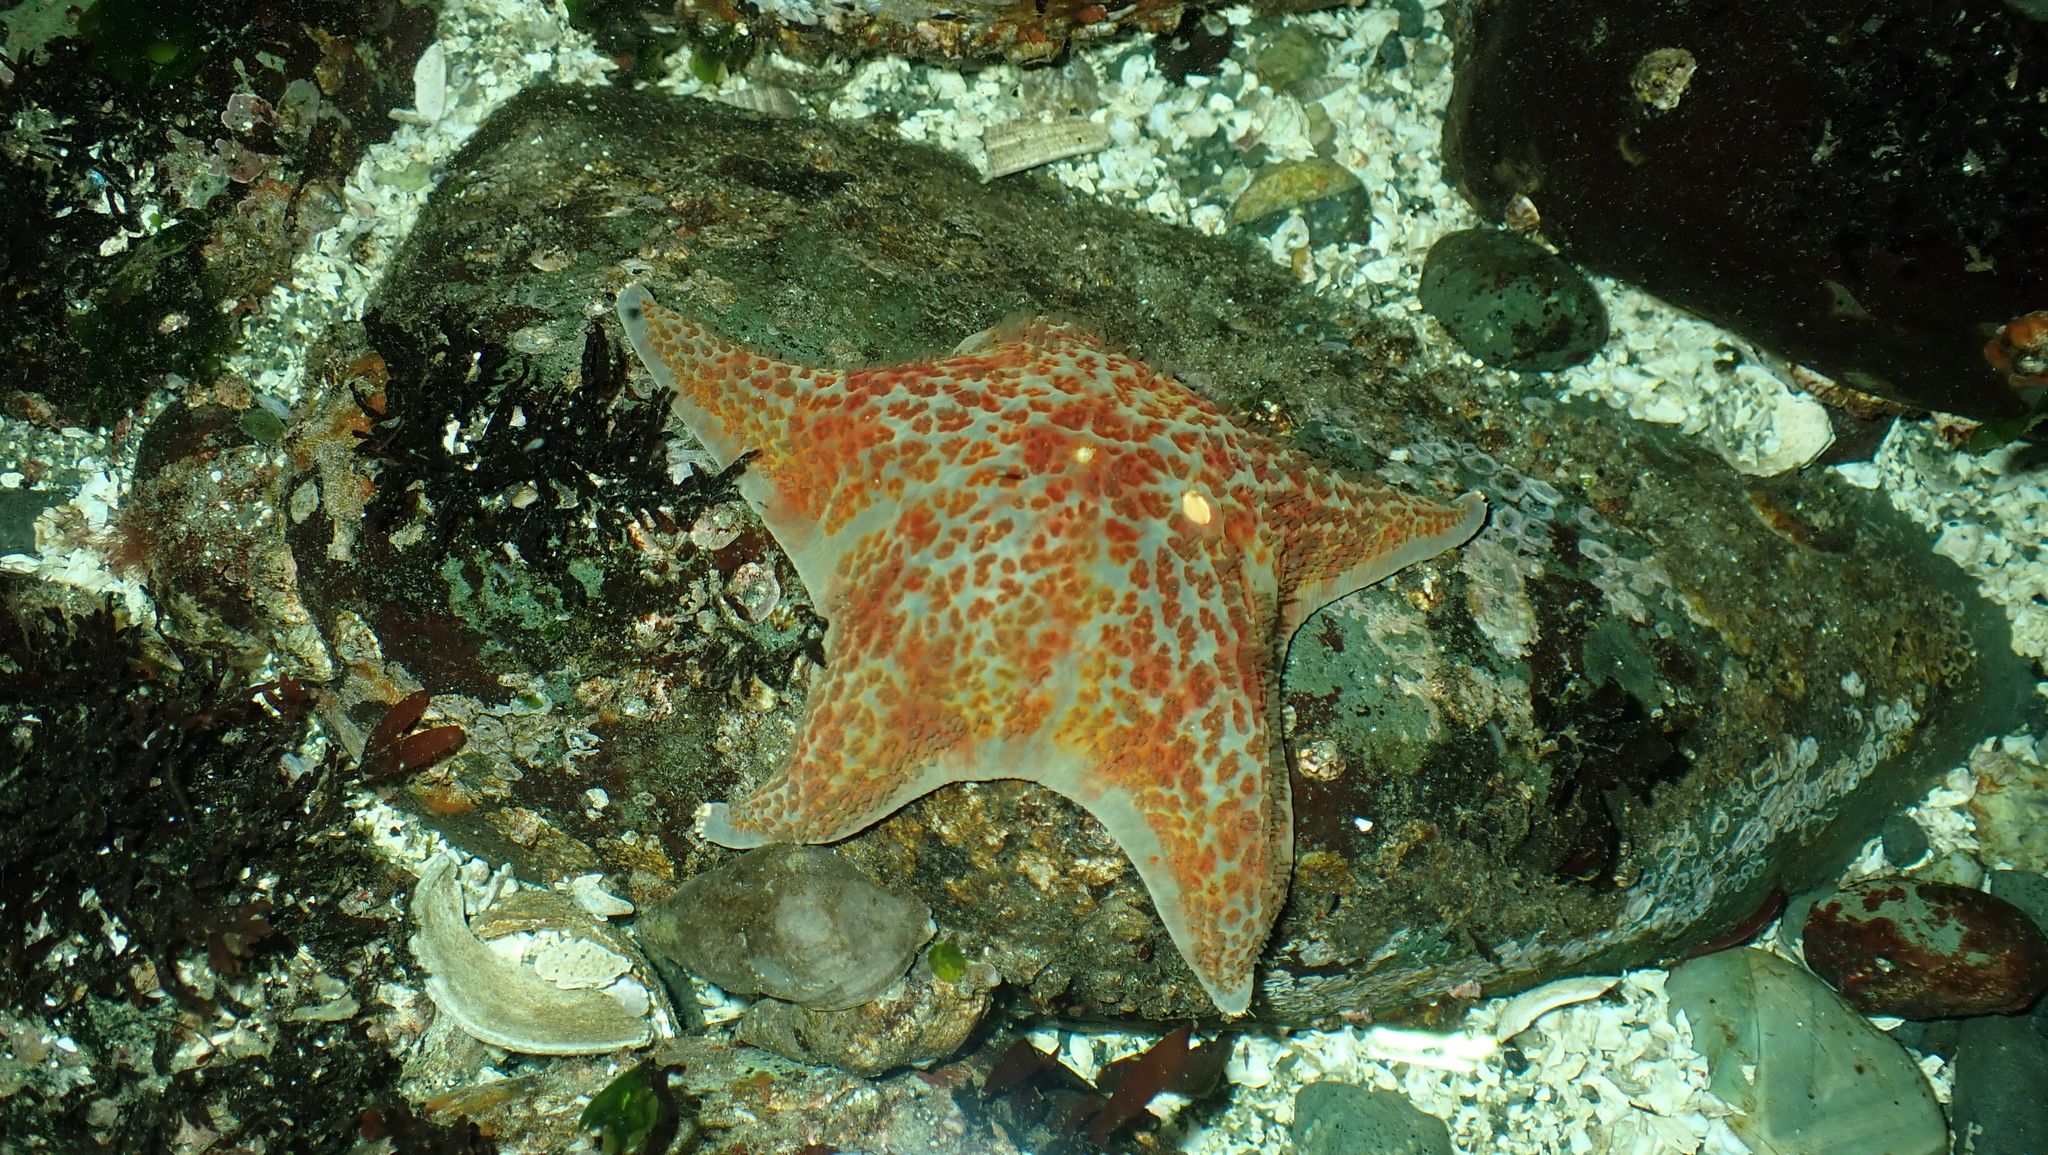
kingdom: Animalia
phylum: Echinodermata
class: Asteroidea
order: Valvatida
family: Asteropseidae
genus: Dermasterias
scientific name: Dermasterias imbricata
